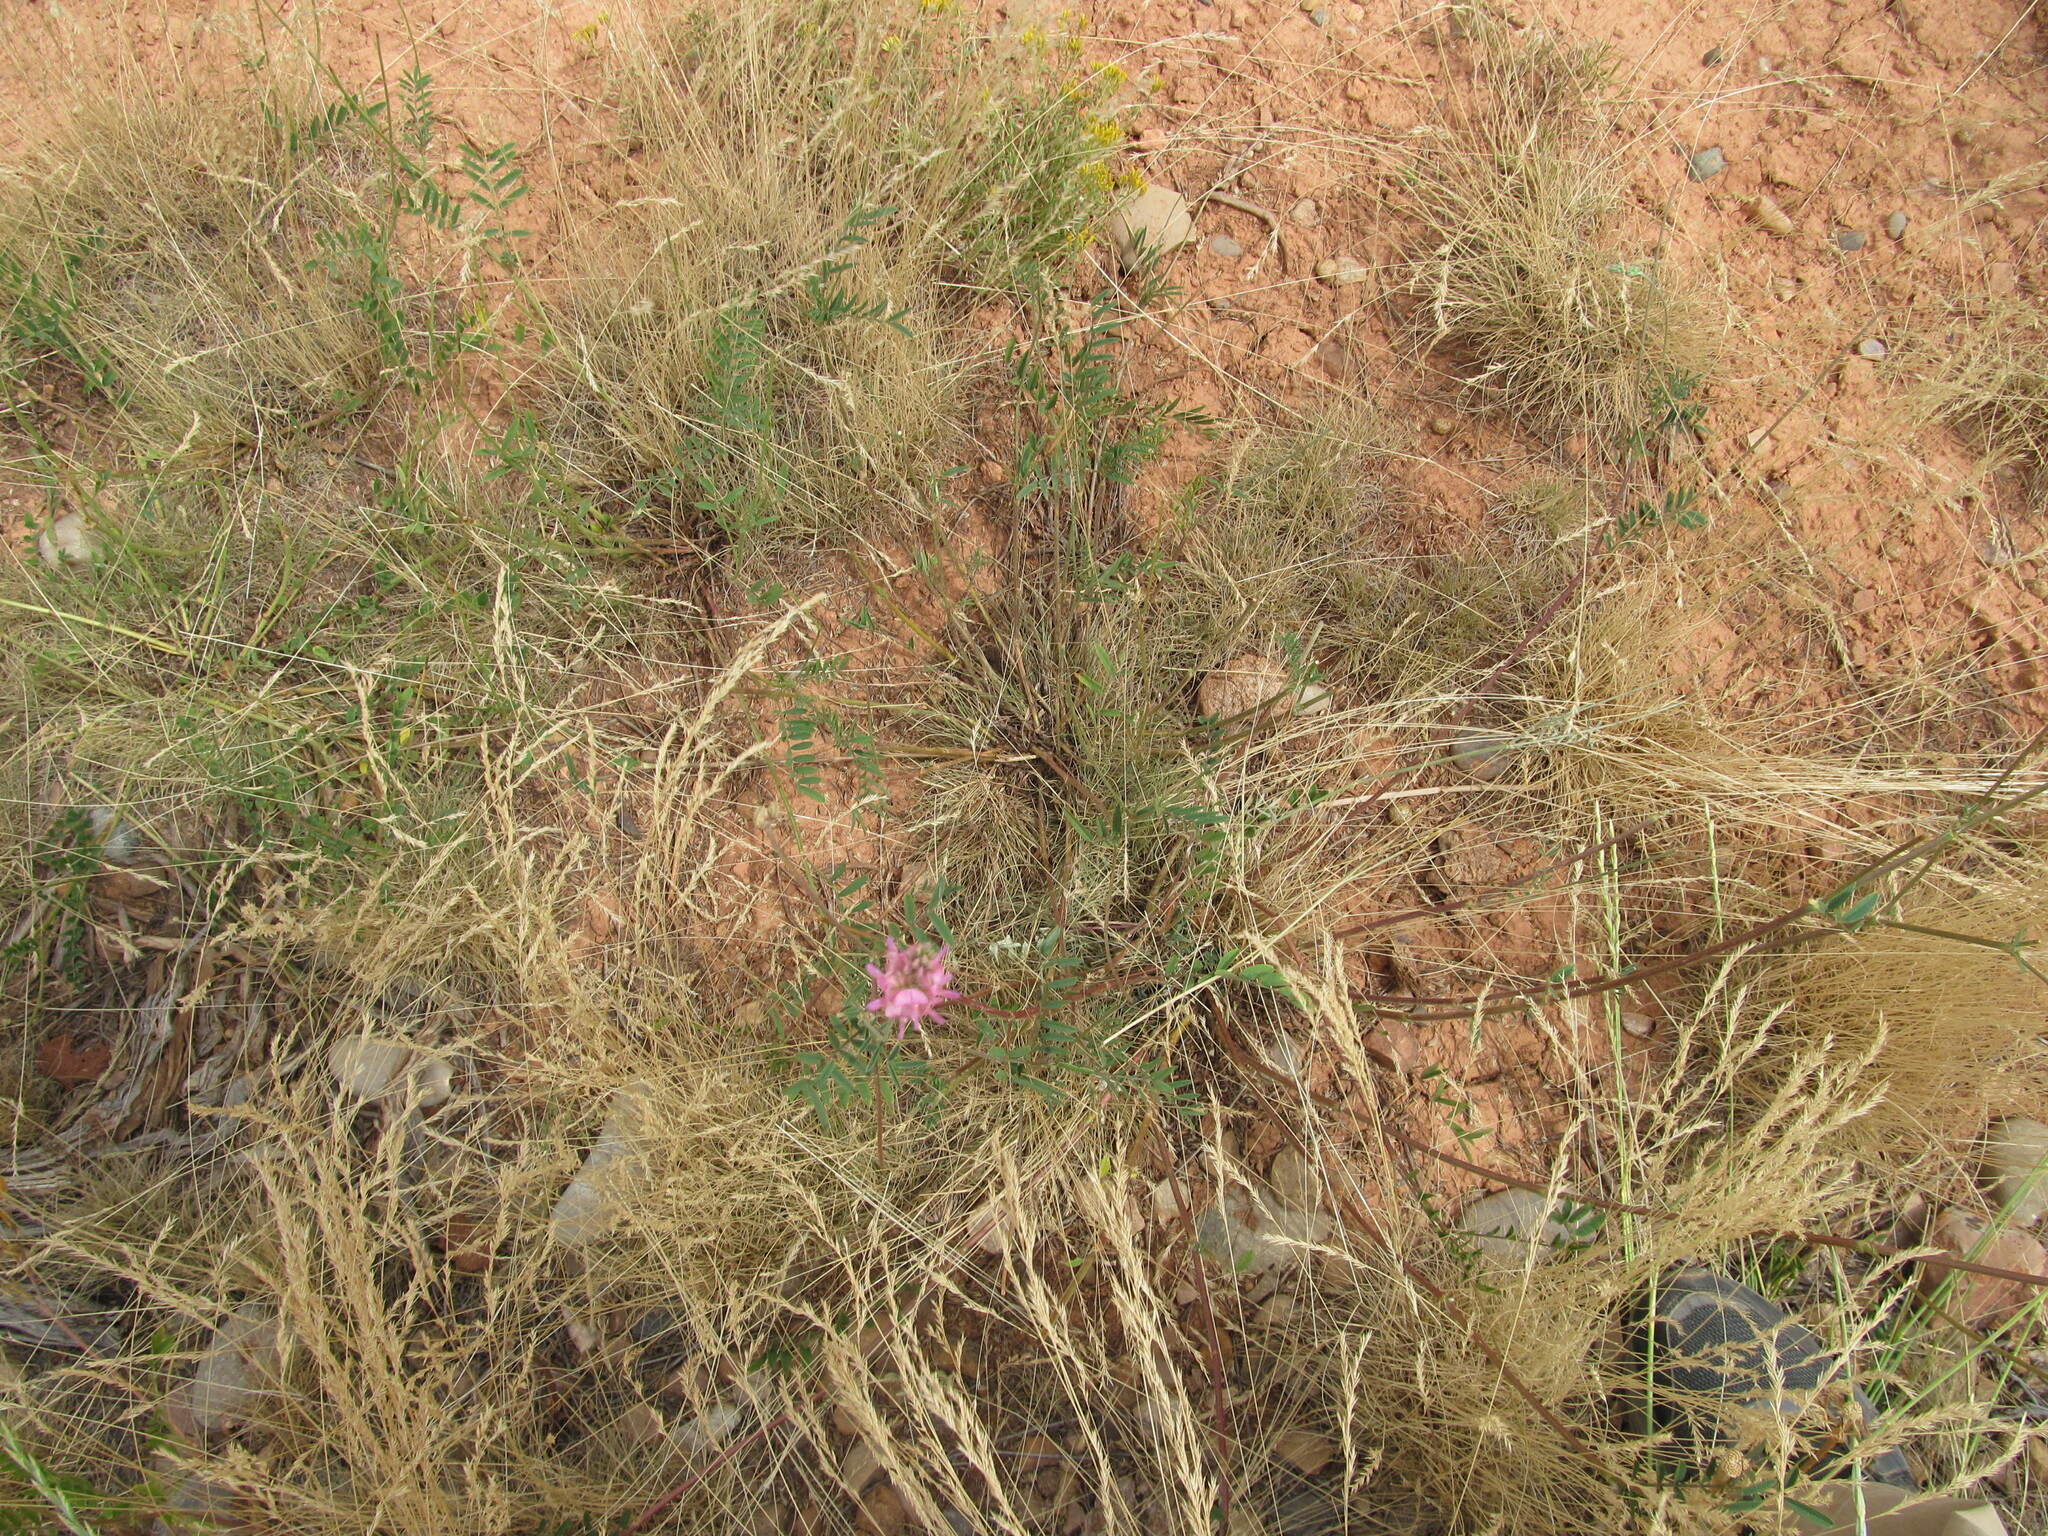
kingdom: Plantae
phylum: Tracheophyta
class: Magnoliopsida
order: Fabales
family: Fabaceae
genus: Onobrychis
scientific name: Onobrychis viciifolia
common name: Sainfoin
